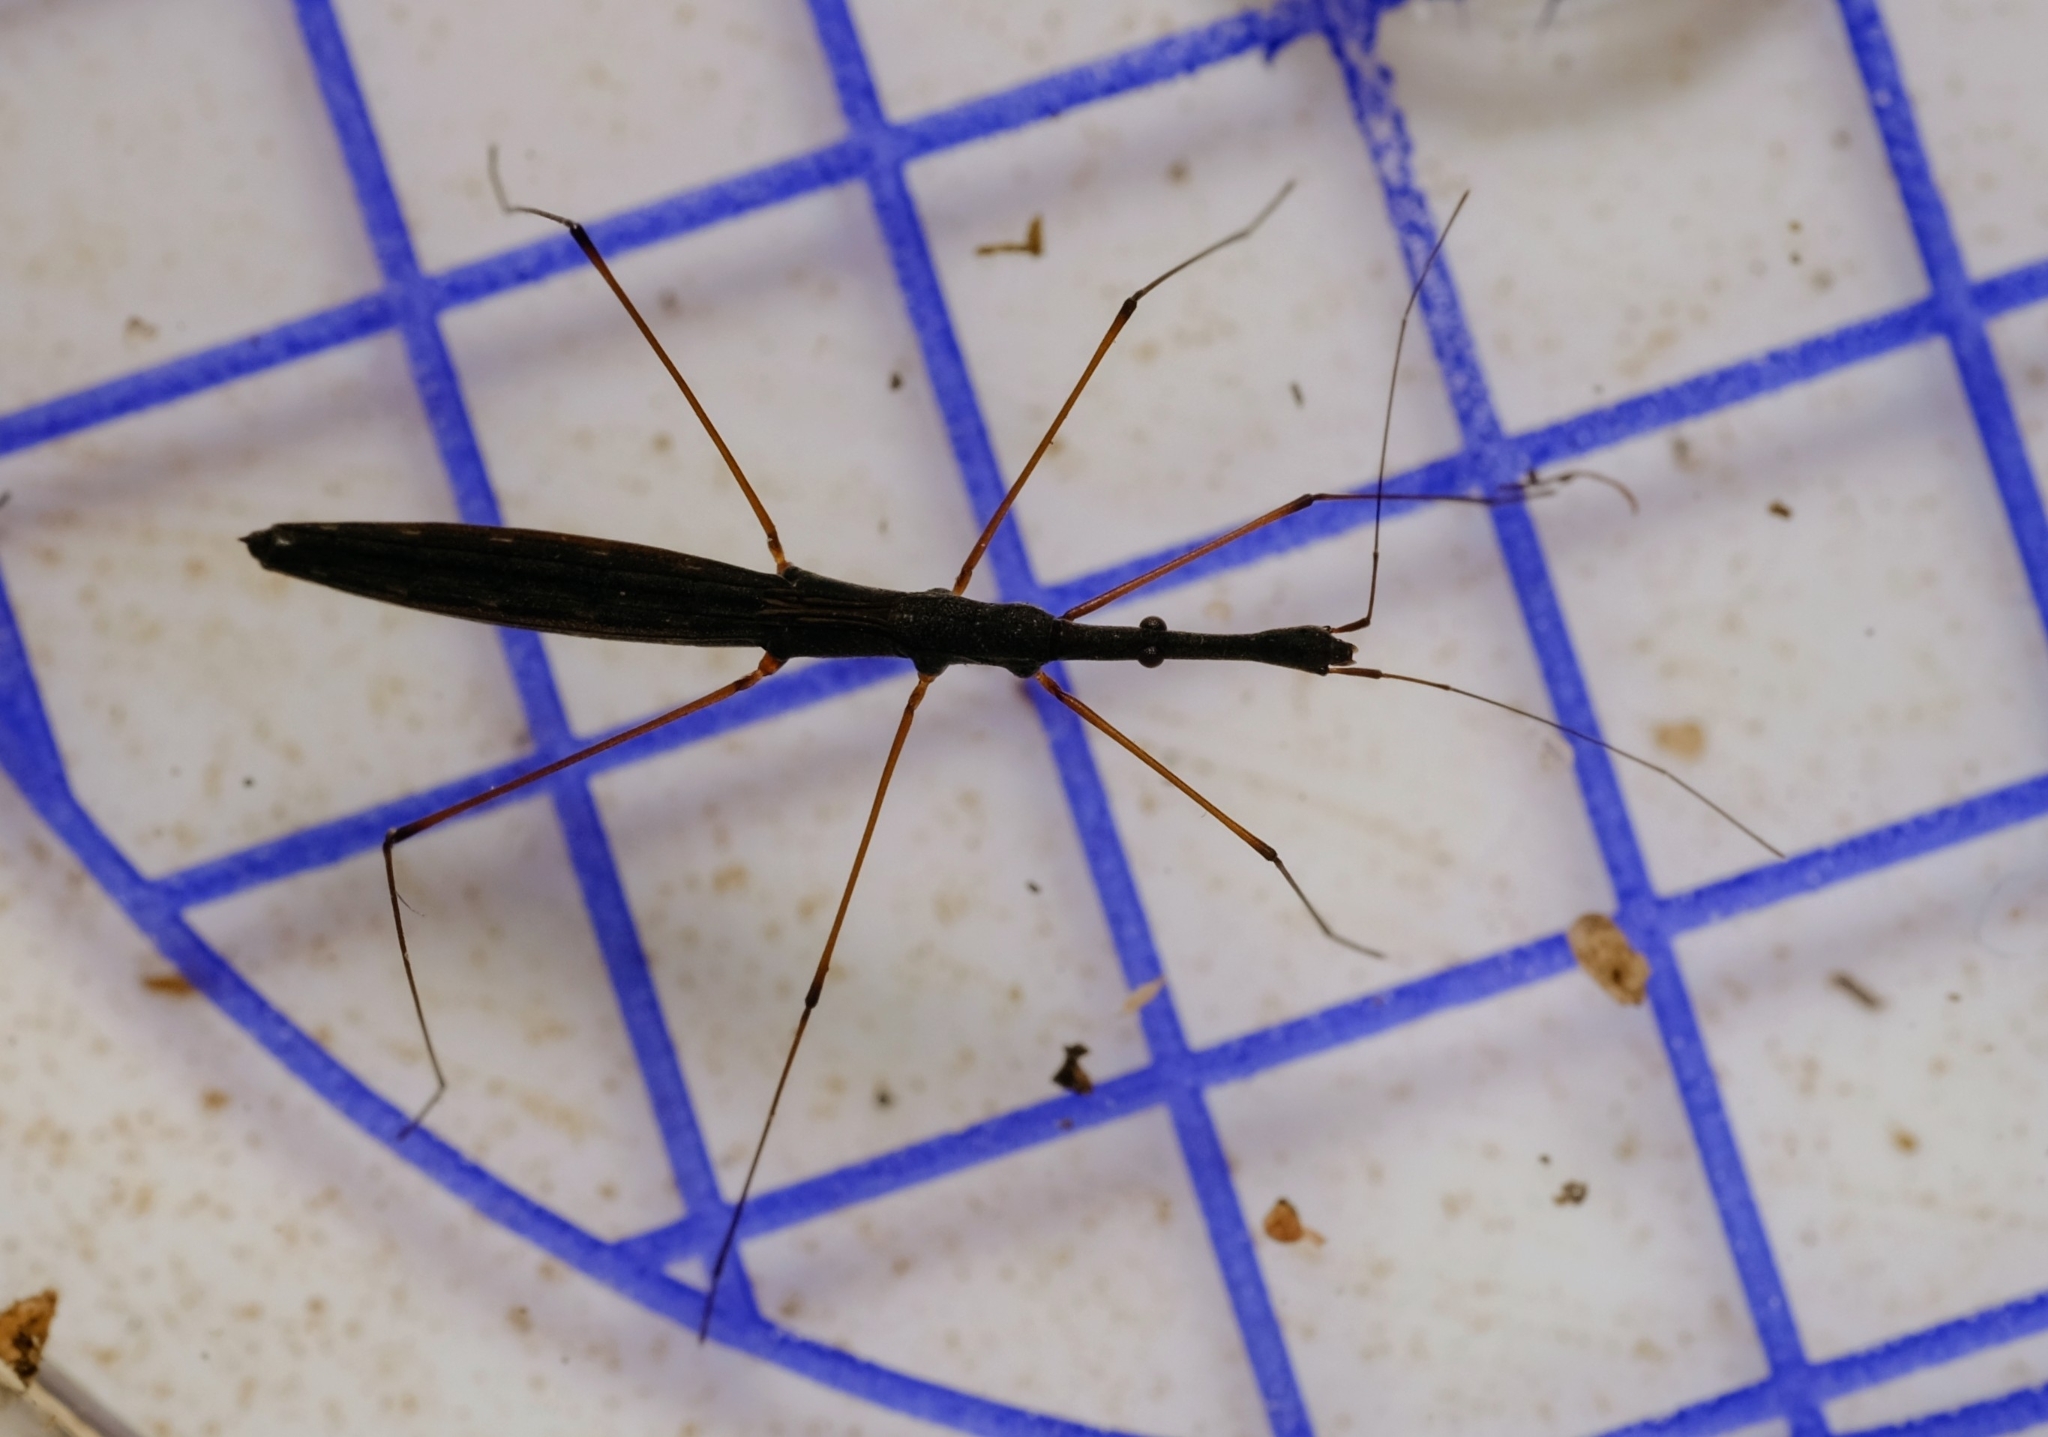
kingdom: Animalia
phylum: Arthropoda
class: Insecta
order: Hemiptera
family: Hydrometridae
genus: Hydrometra
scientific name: Hydrometra stagnorum
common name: Water measurer
